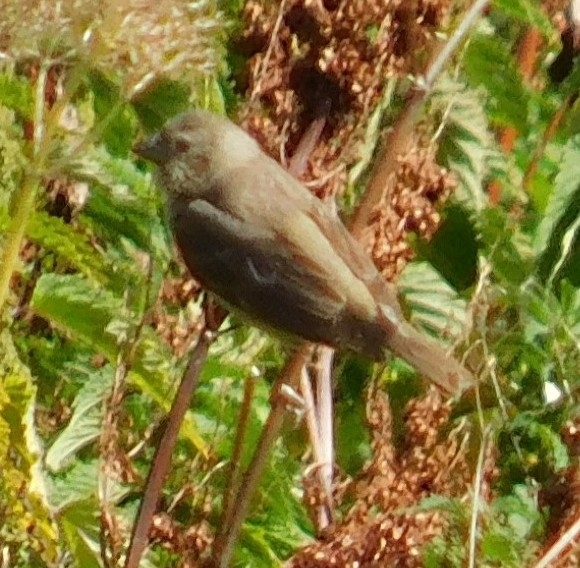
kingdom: Animalia
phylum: Chordata
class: Aves
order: Passeriformes
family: Fringillidae
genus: Carpodacus
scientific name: Carpodacus erythrinus
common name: Common rosefinch
